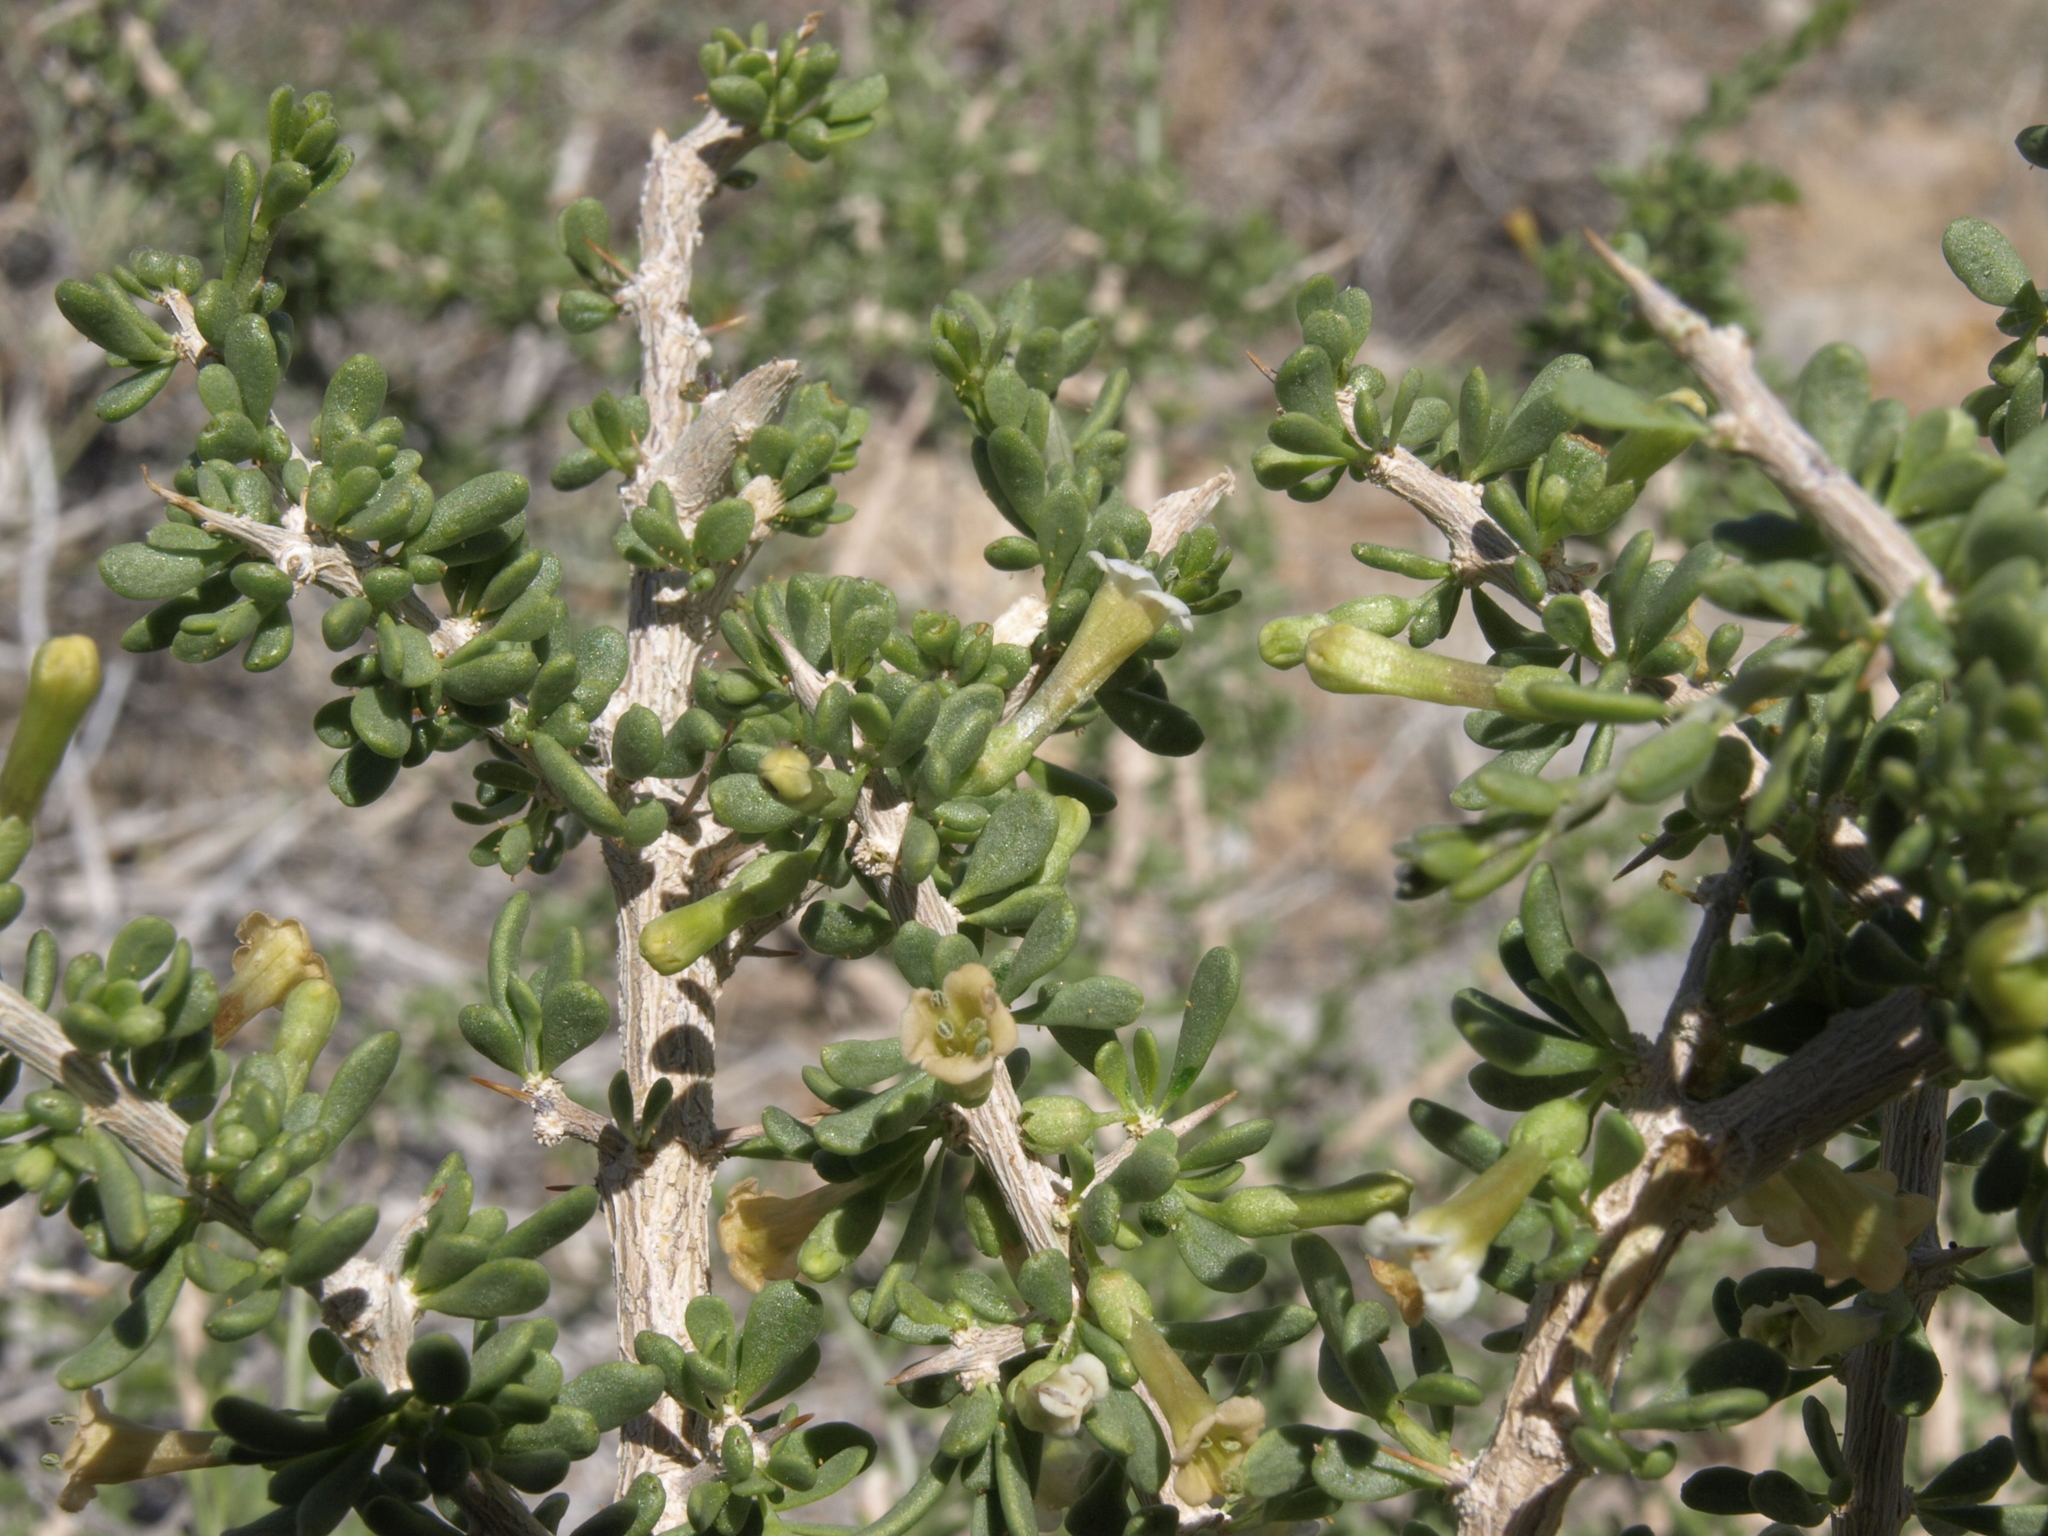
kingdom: Plantae
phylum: Tracheophyta
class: Magnoliopsida
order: Solanales
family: Solanaceae
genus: Lycium
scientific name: Lycium andersonii
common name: Water-jacket
